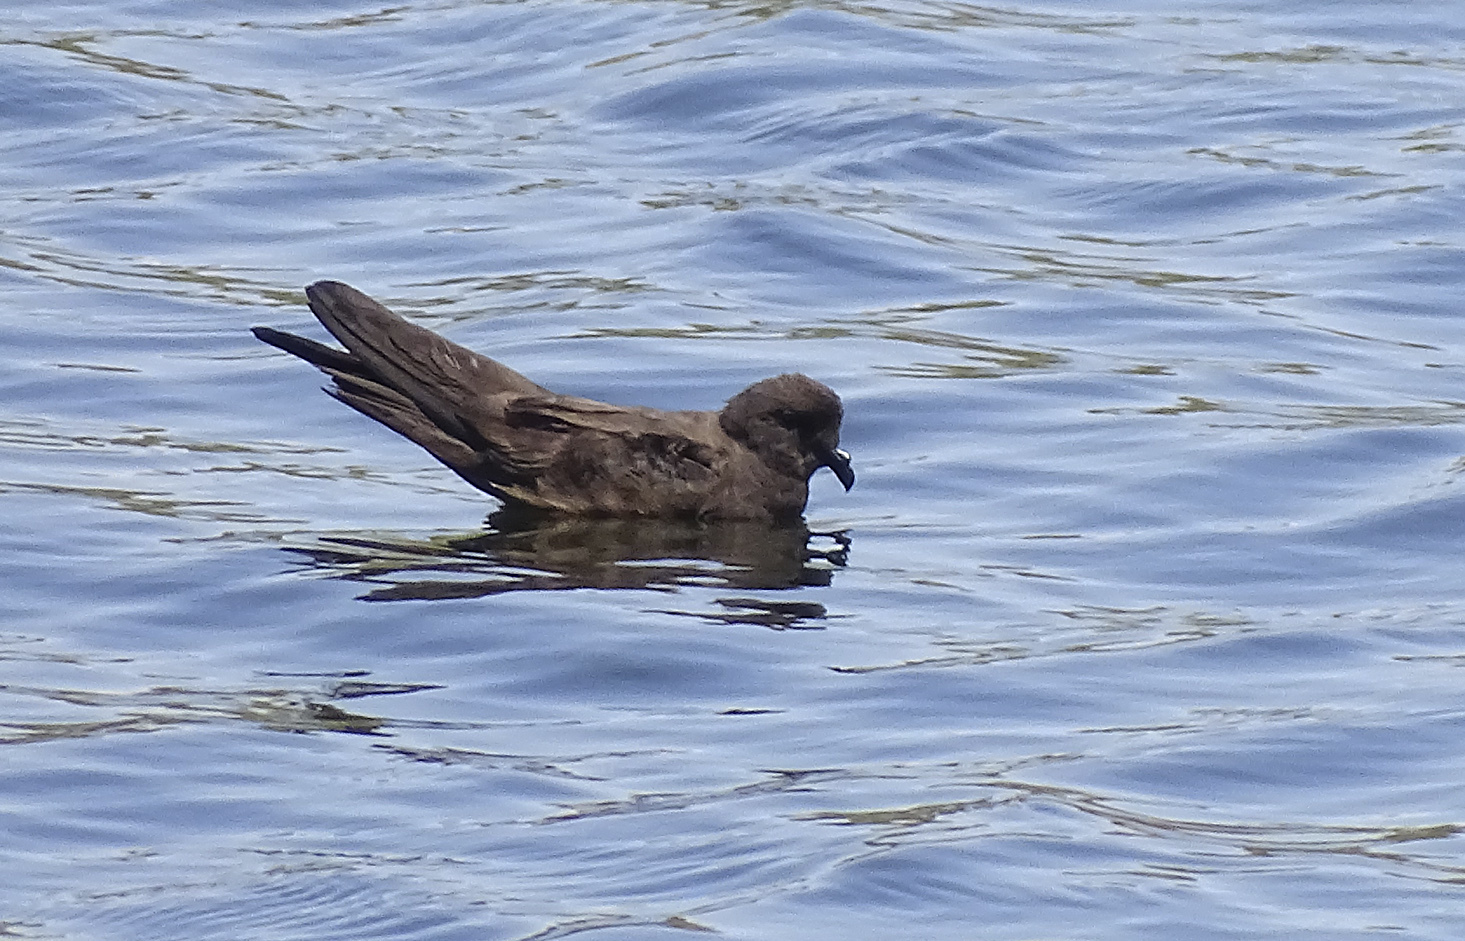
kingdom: Animalia
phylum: Chordata
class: Aves
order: Procellariiformes
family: Hydrobatidae
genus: Oceanodroma
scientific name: Oceanodroma microsoma
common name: Least storm-petrel
